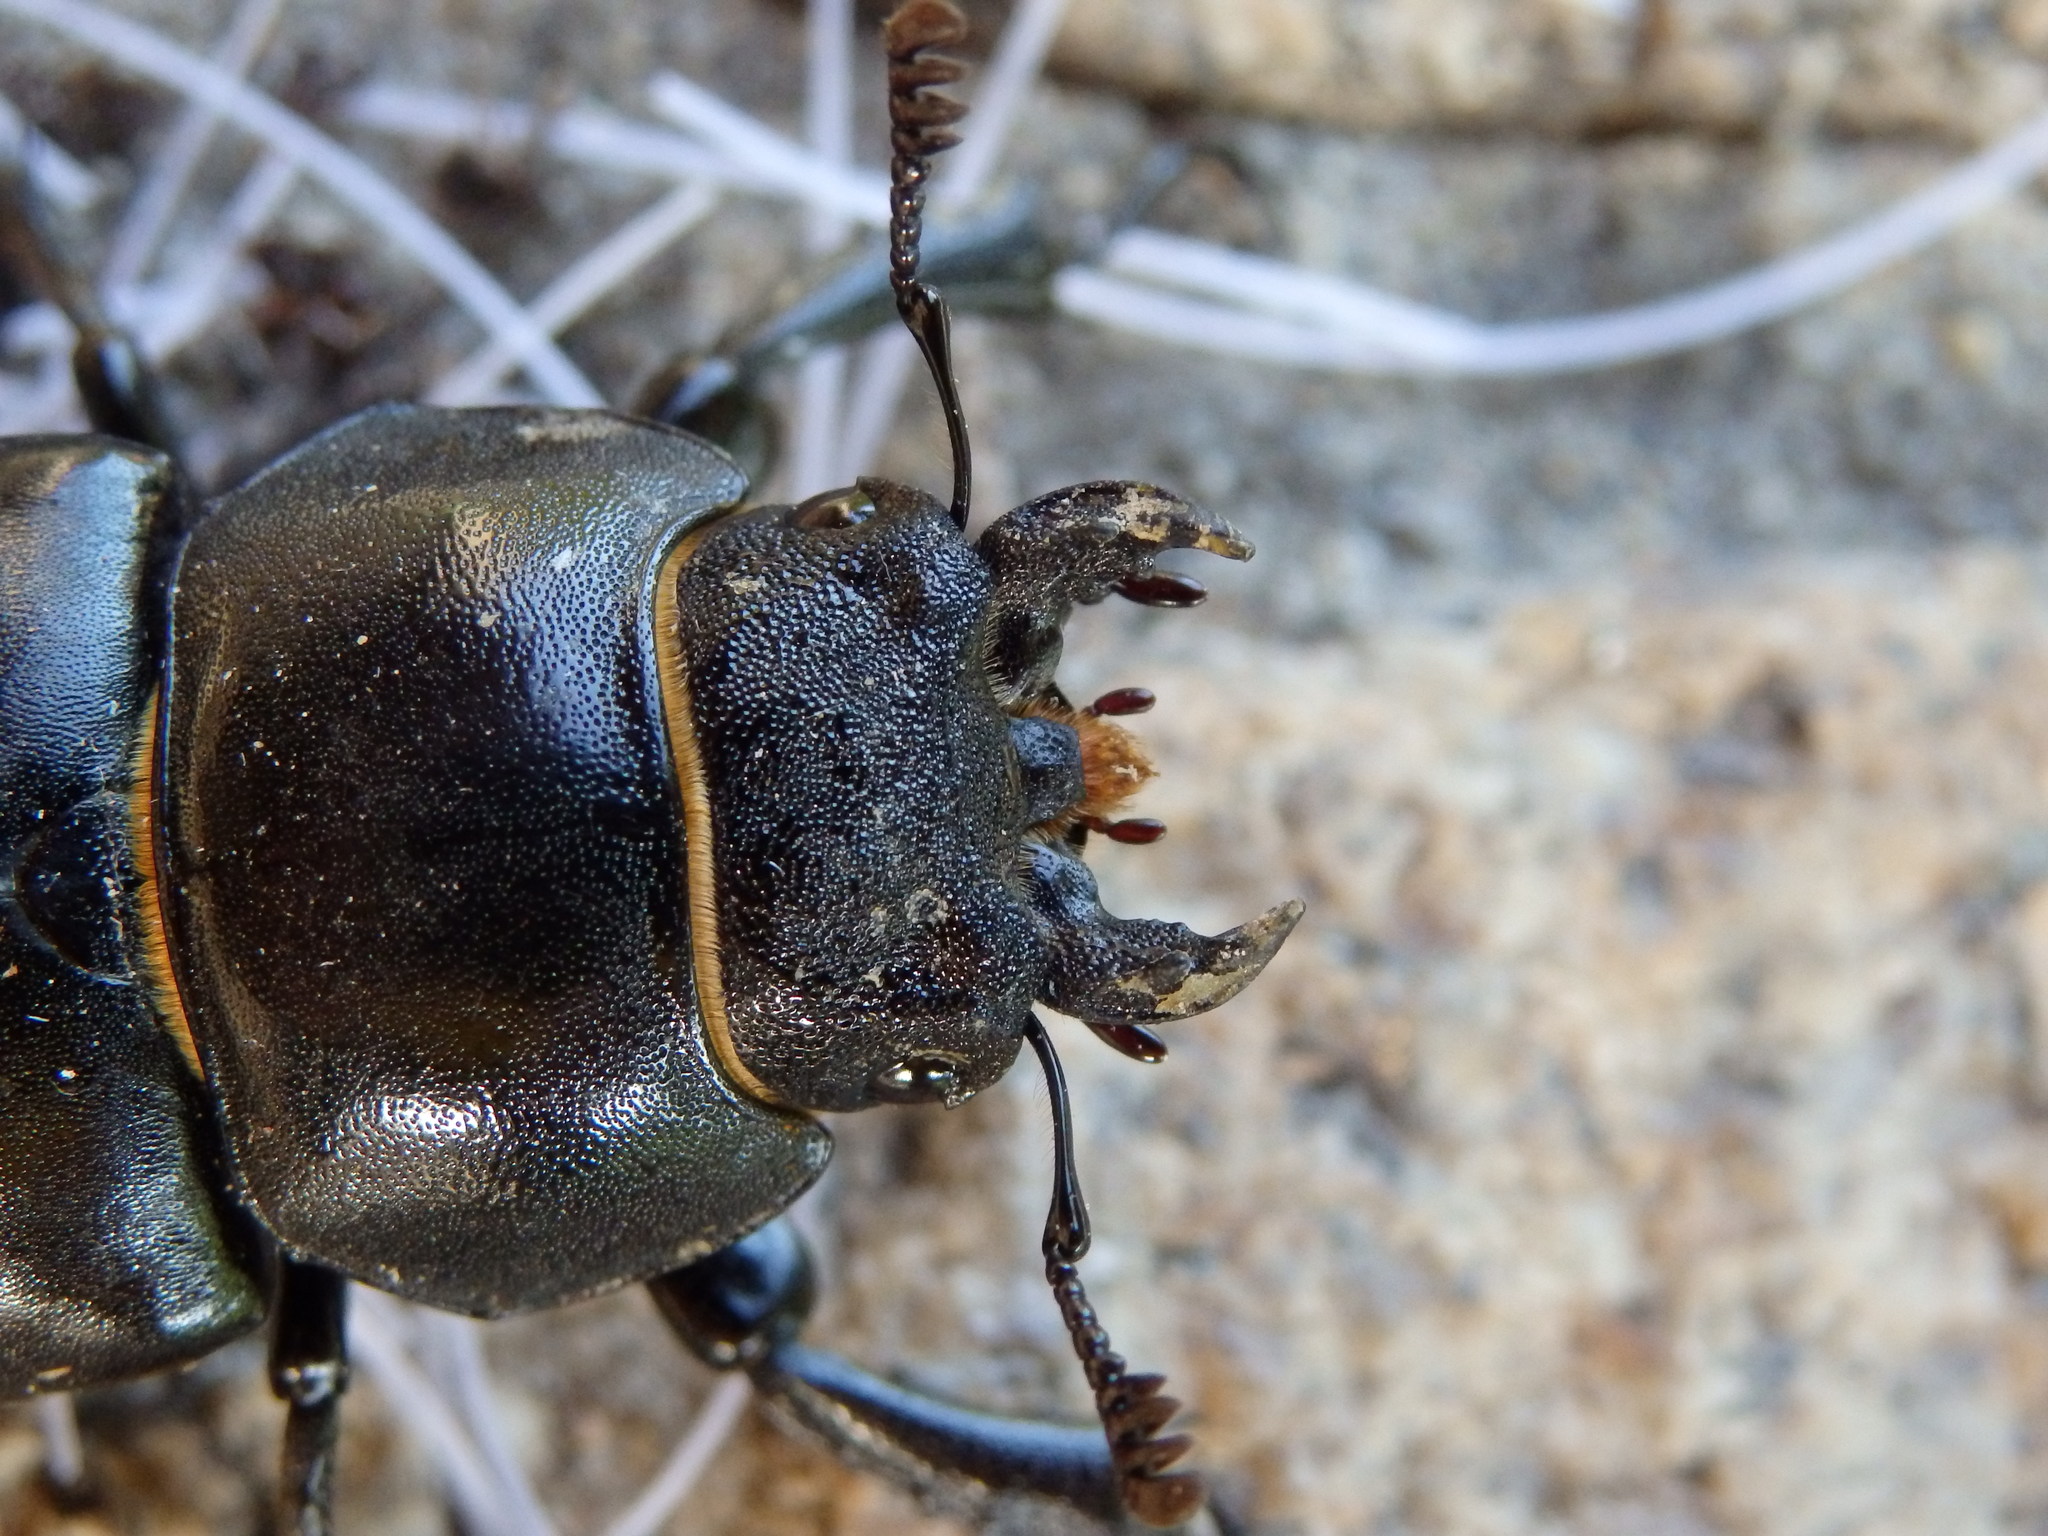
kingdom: Animalia
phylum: Arthropoda
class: Insecta
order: Coleoptera
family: Lucanidae
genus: Lucanus
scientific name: Lucanus cervus
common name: Stag beetle
